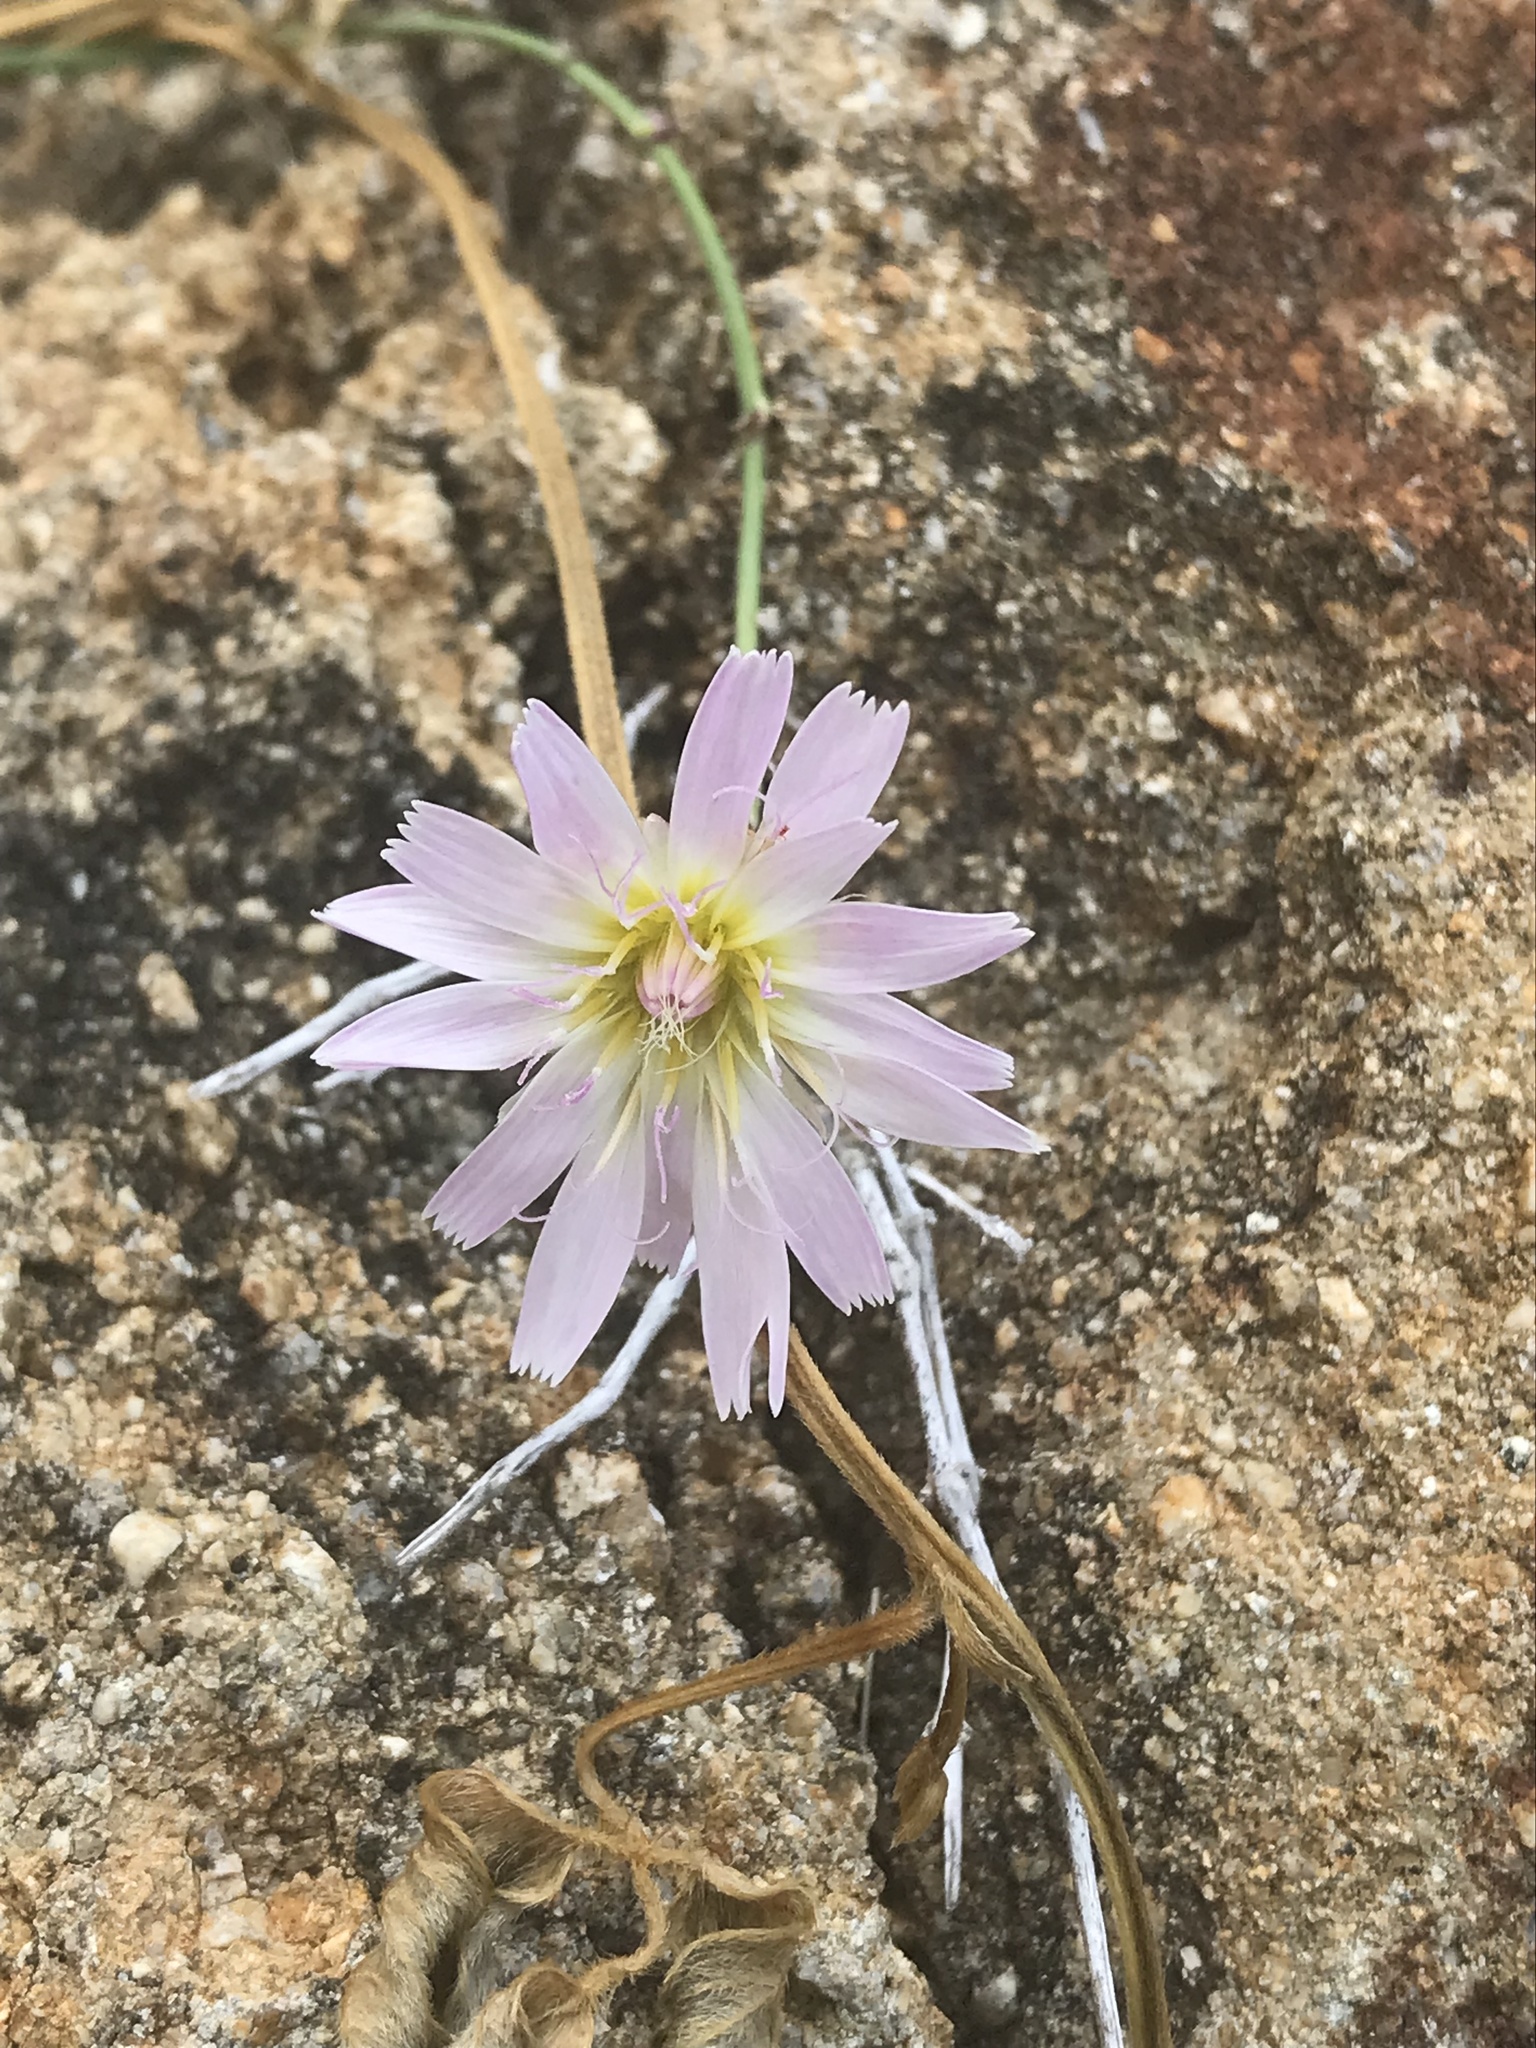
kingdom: Plantae
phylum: Tracheophyta
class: Magnoliopsida
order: Asterales
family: Asteraceae
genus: Pinaropappus
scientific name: Pinaropappus roseus
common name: Rock-lettuce
